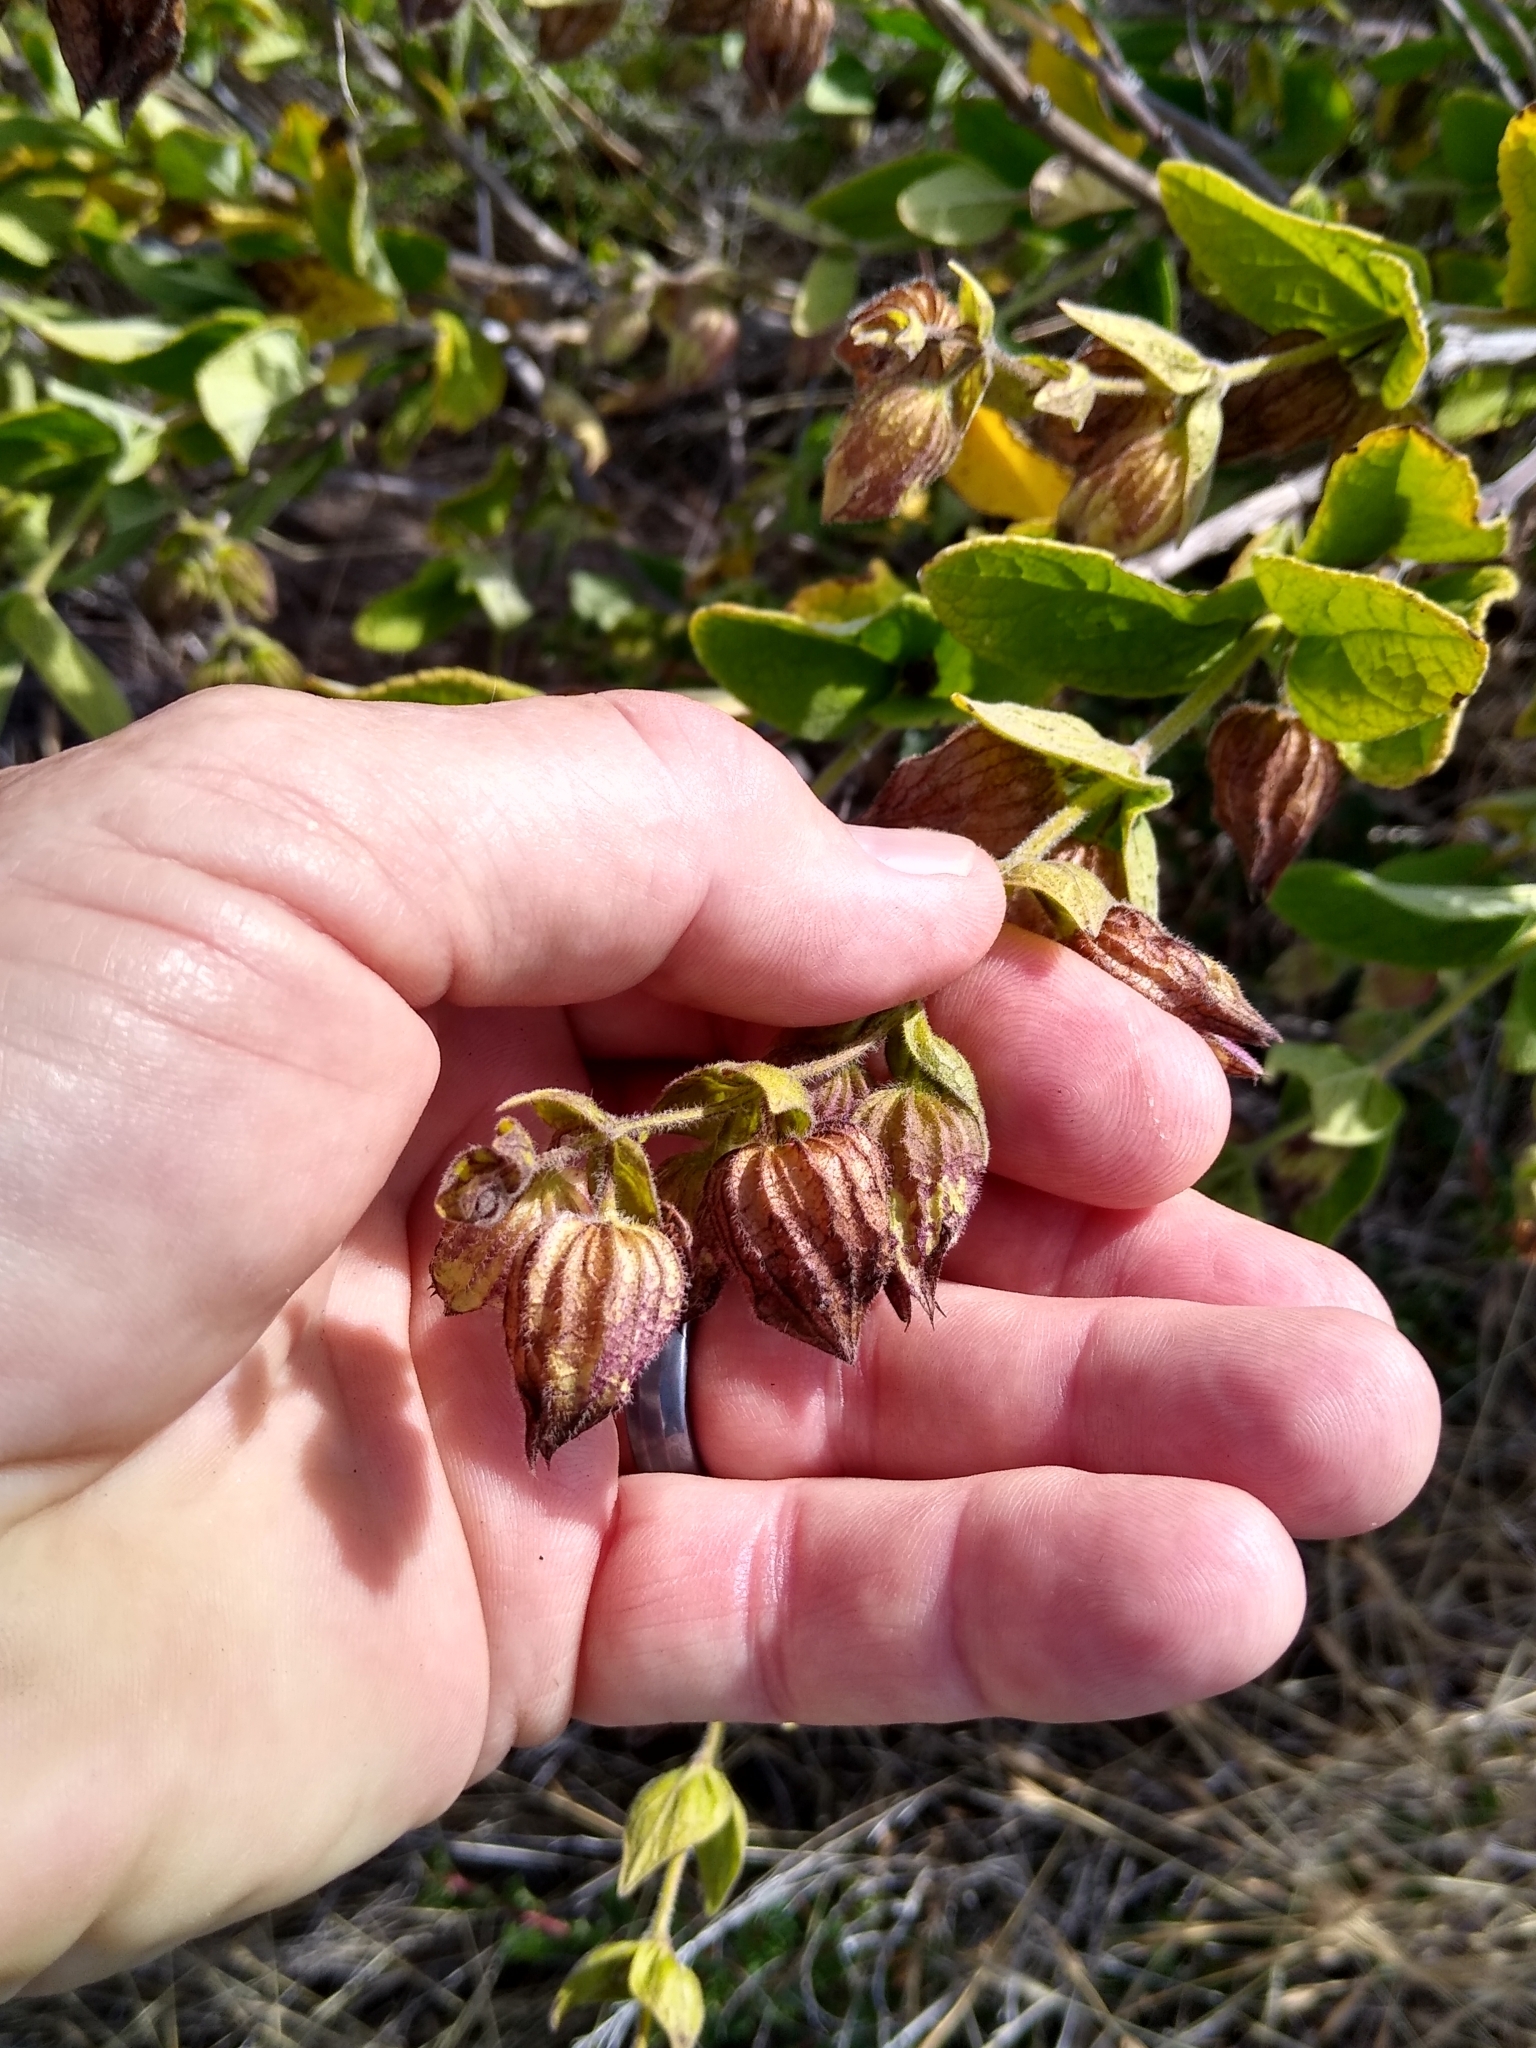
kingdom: Plantae
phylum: Tracheophyta
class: Magnoliopsida
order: Lamiales
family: Lamiaceae
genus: Lepechinia
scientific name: Lepechinia calycina
